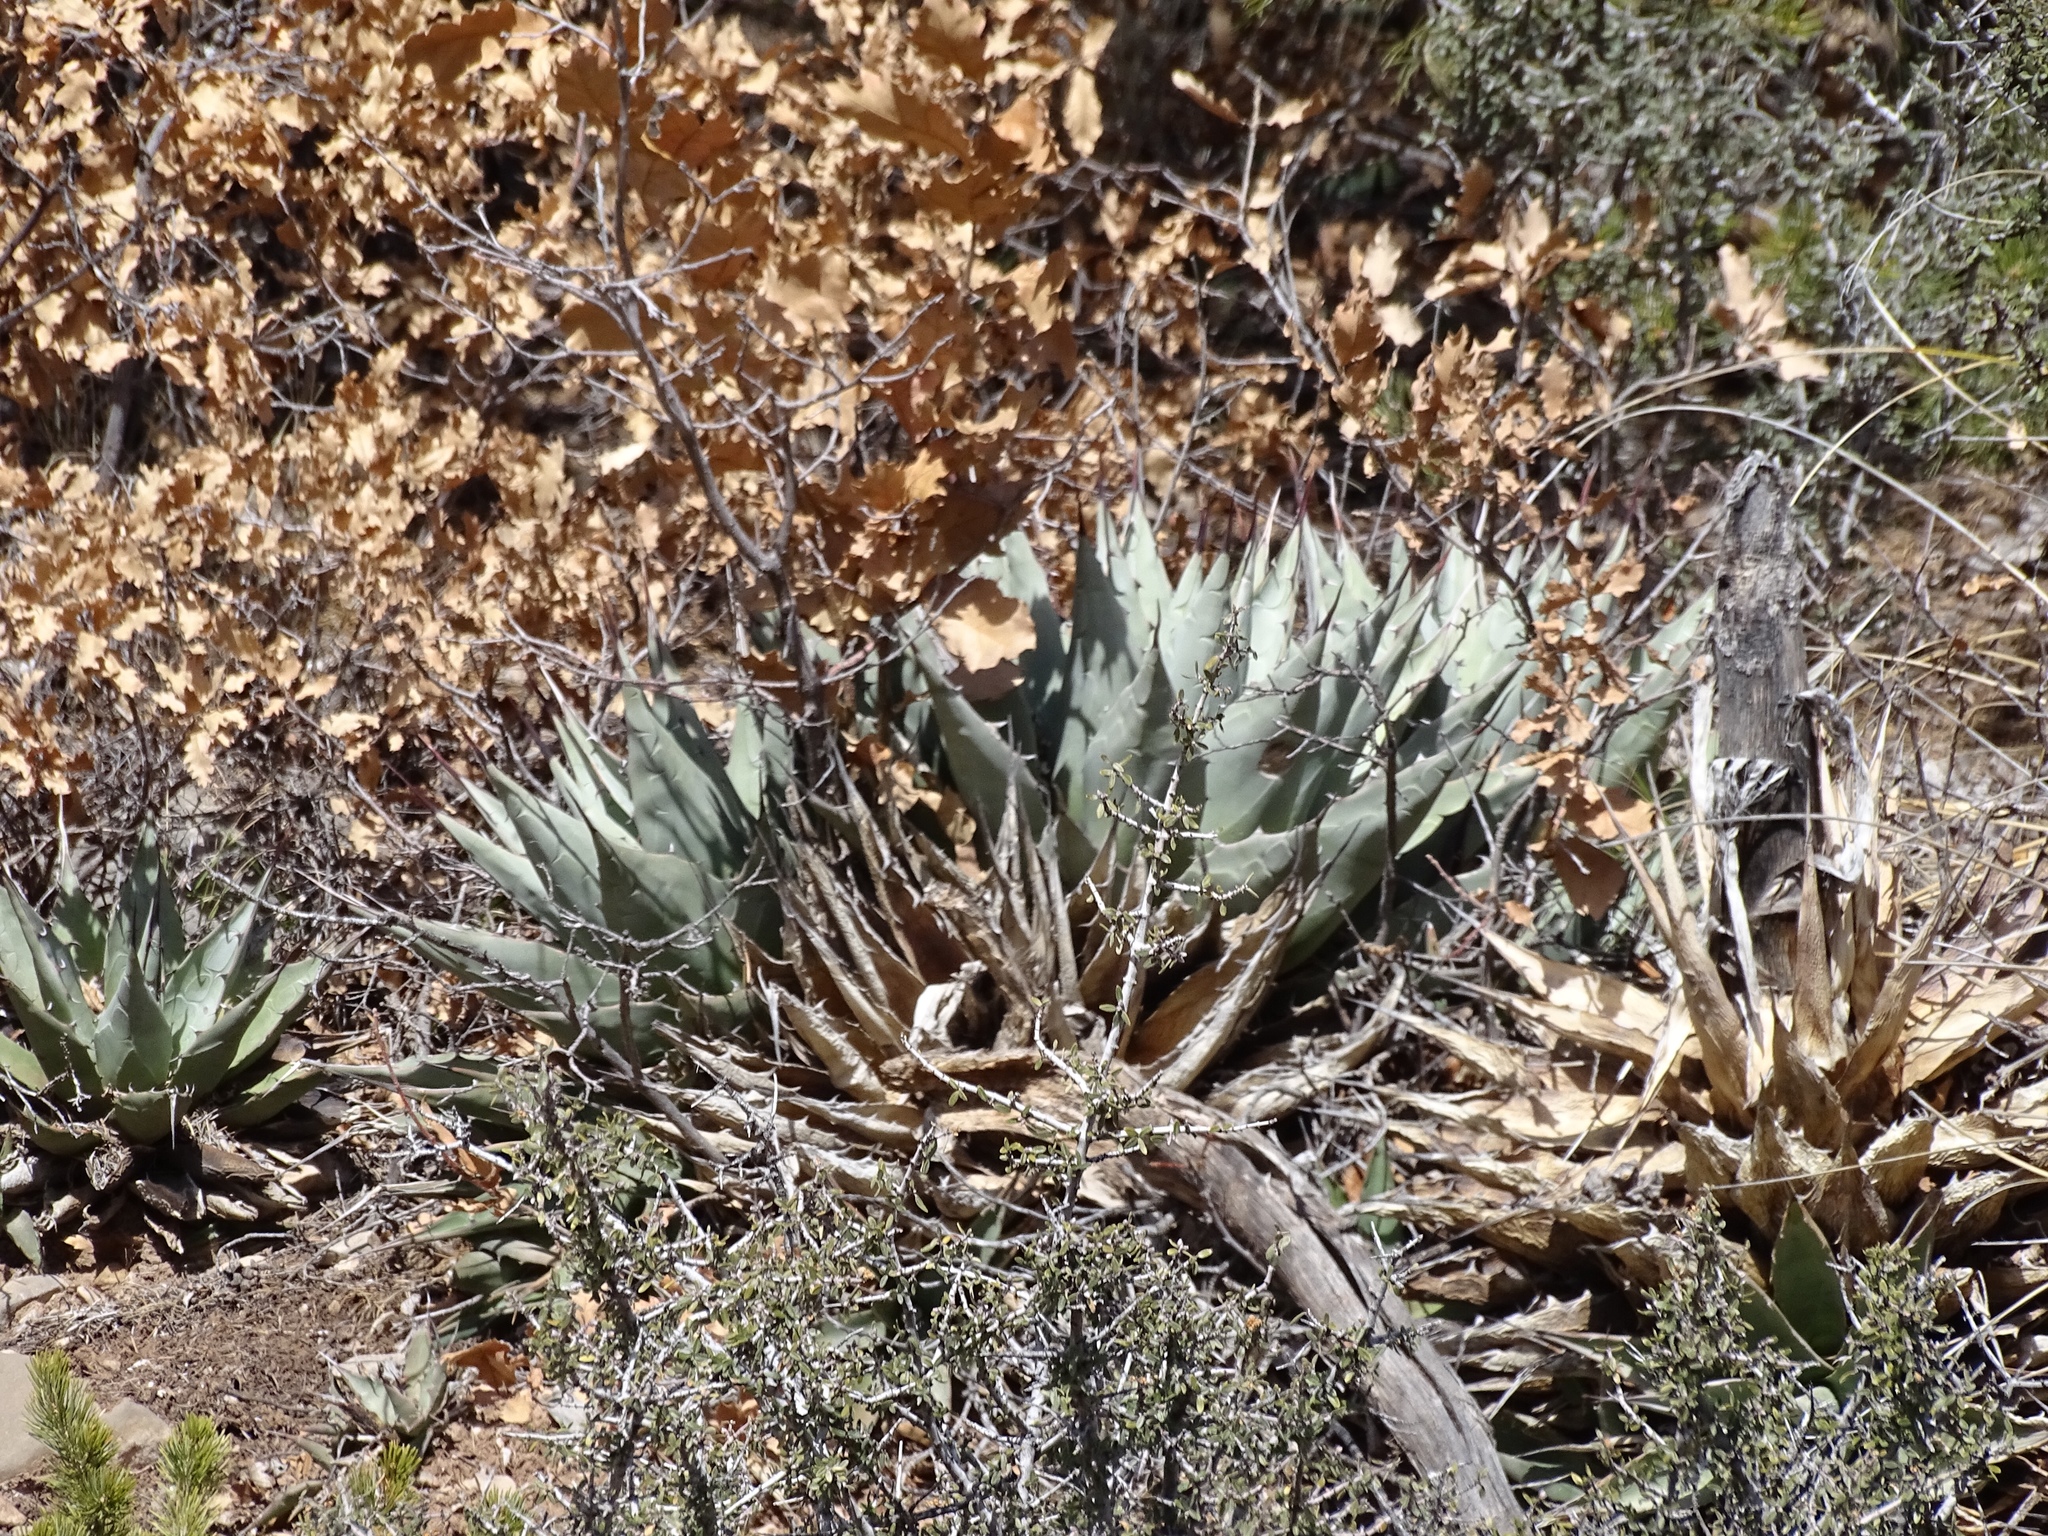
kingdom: Plantae
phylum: Tracheophyta
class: Liliopsida
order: Asparagales
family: Asparagaceae
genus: Agave
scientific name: Agave parryi
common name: Parry's agave
